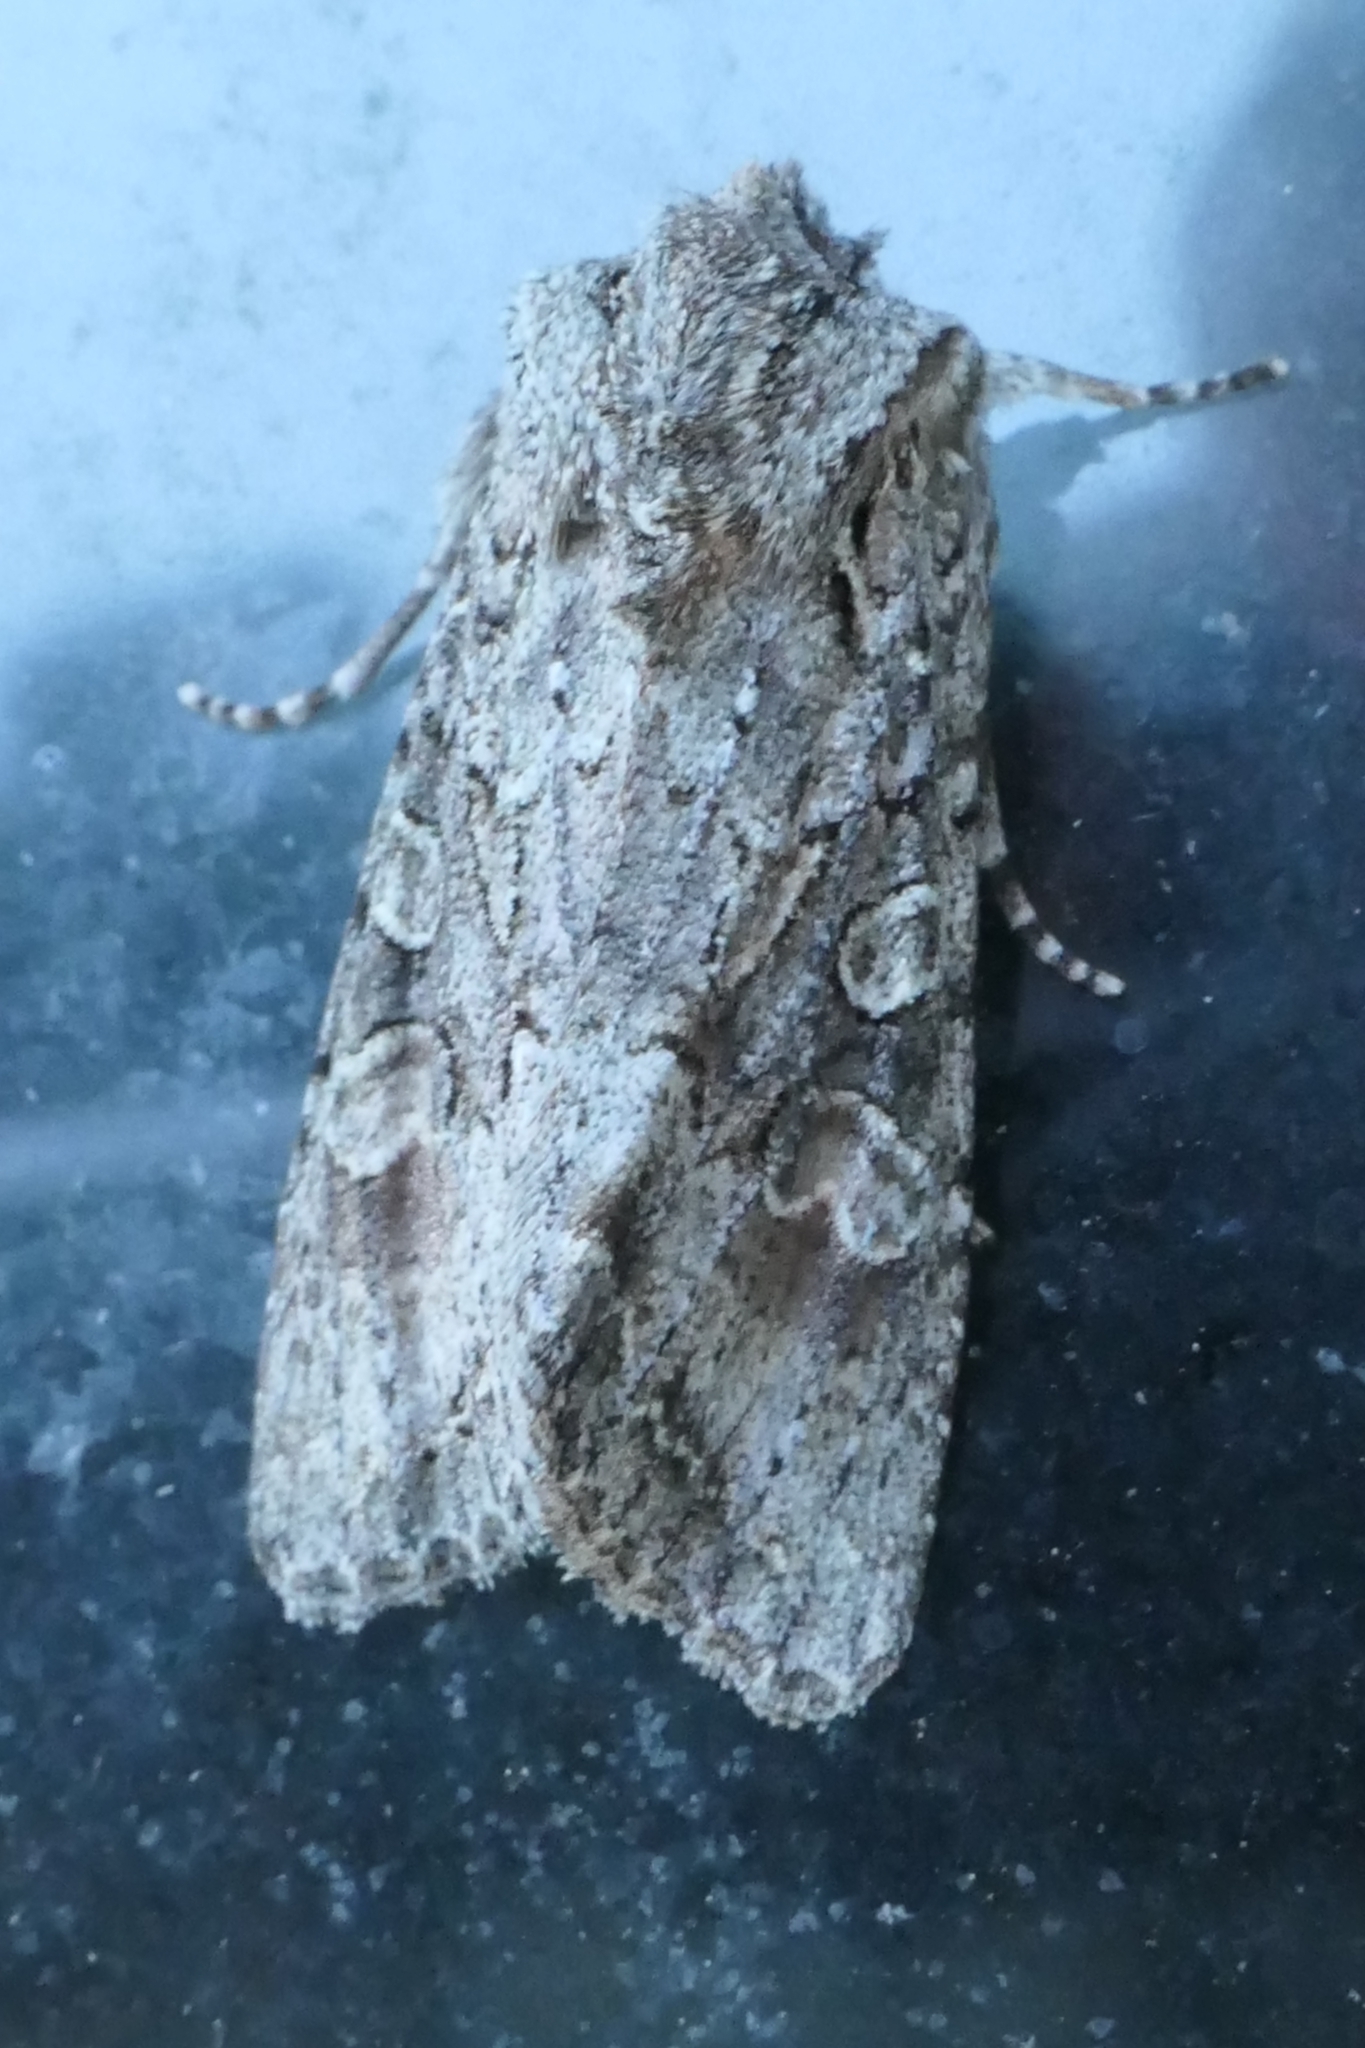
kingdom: Animalia
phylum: Arthropoda
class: Insecta
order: Lepidoptera
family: Noctuidae
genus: Ichneutica
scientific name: Ichneutica mutans
